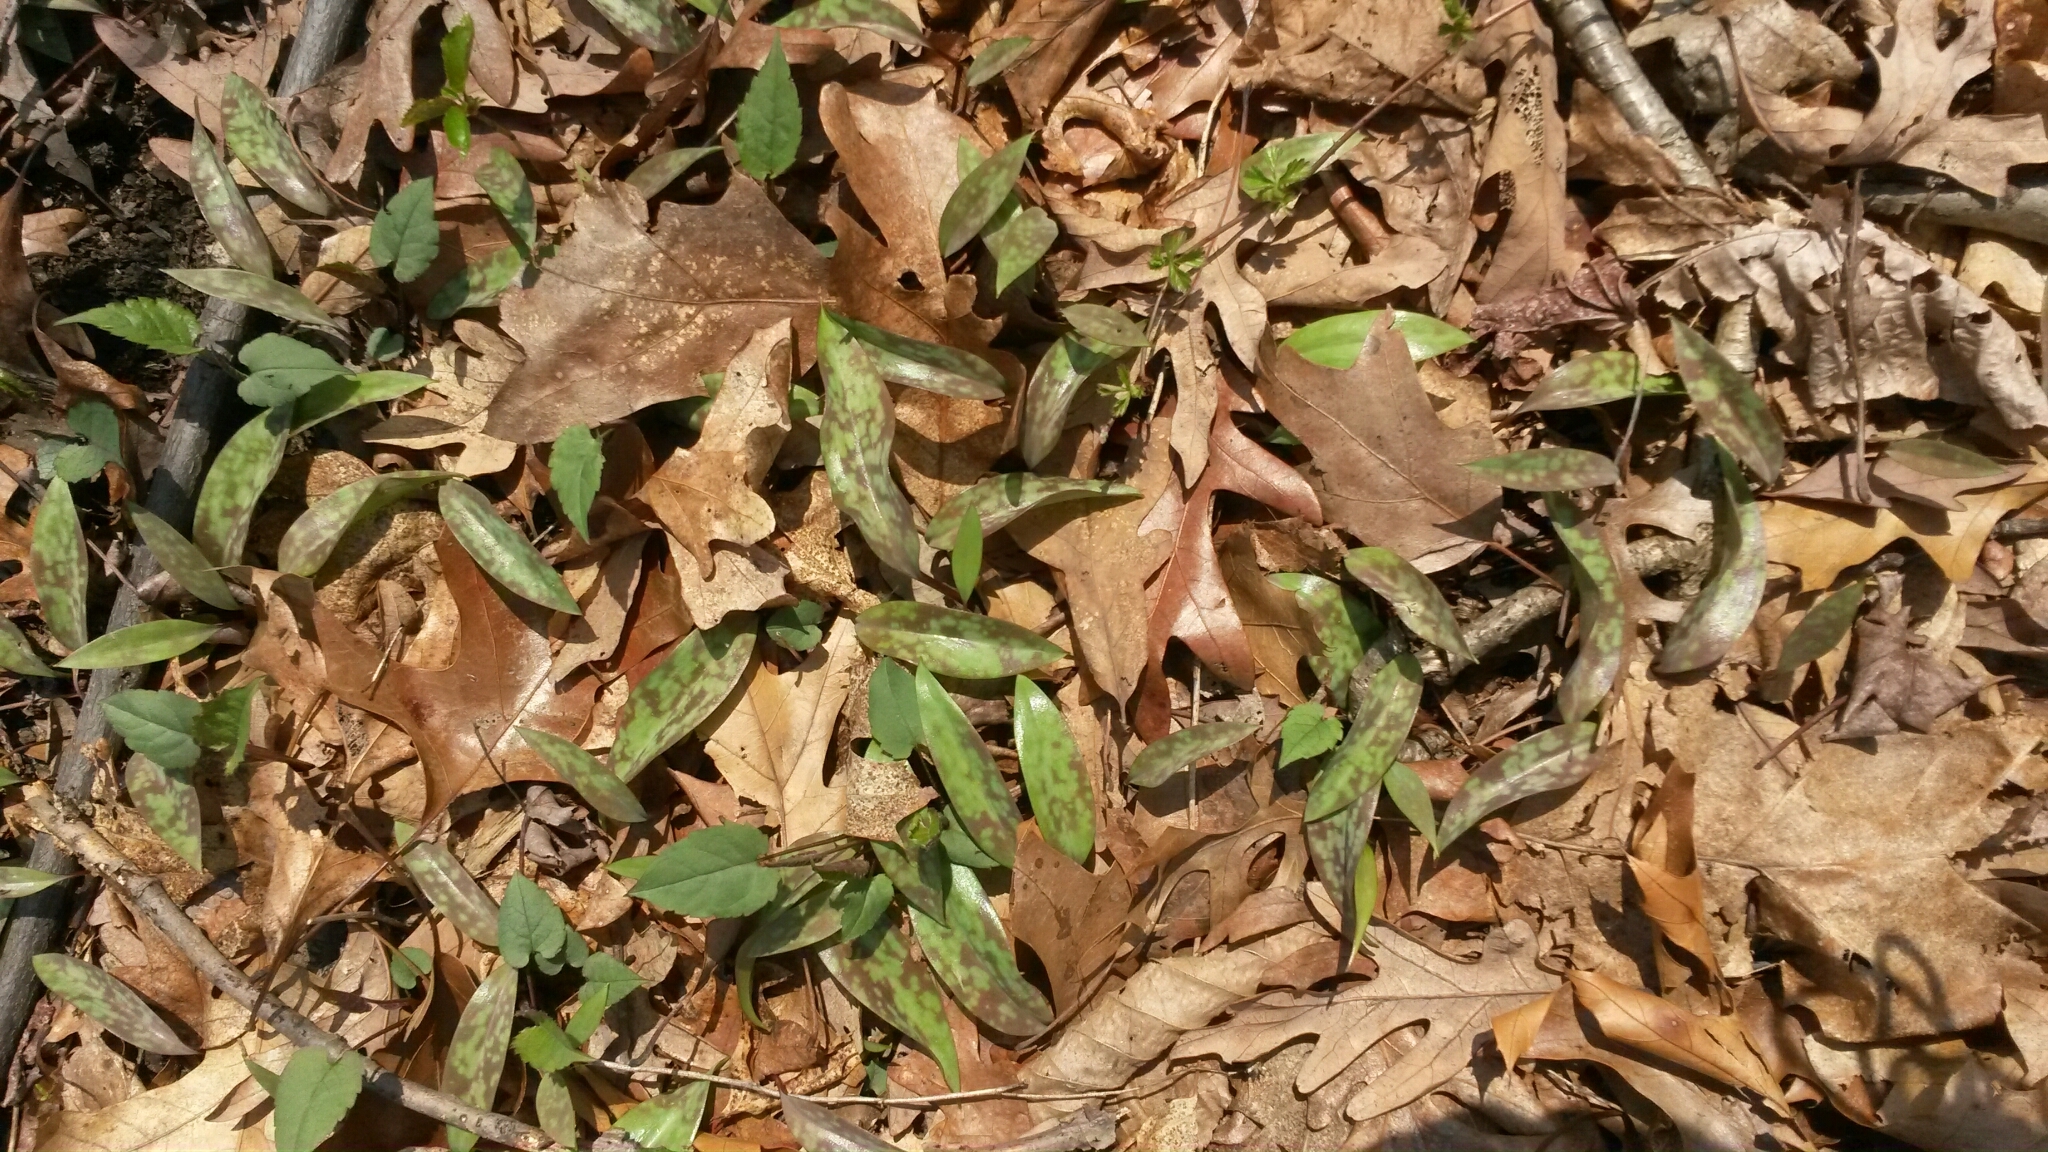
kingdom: Plantae
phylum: Tracheophyta
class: Liliopsida
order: Liliales
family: Liliaceae
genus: Erythronium
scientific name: Erythronium americanum
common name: Yellow adder's-tongue
